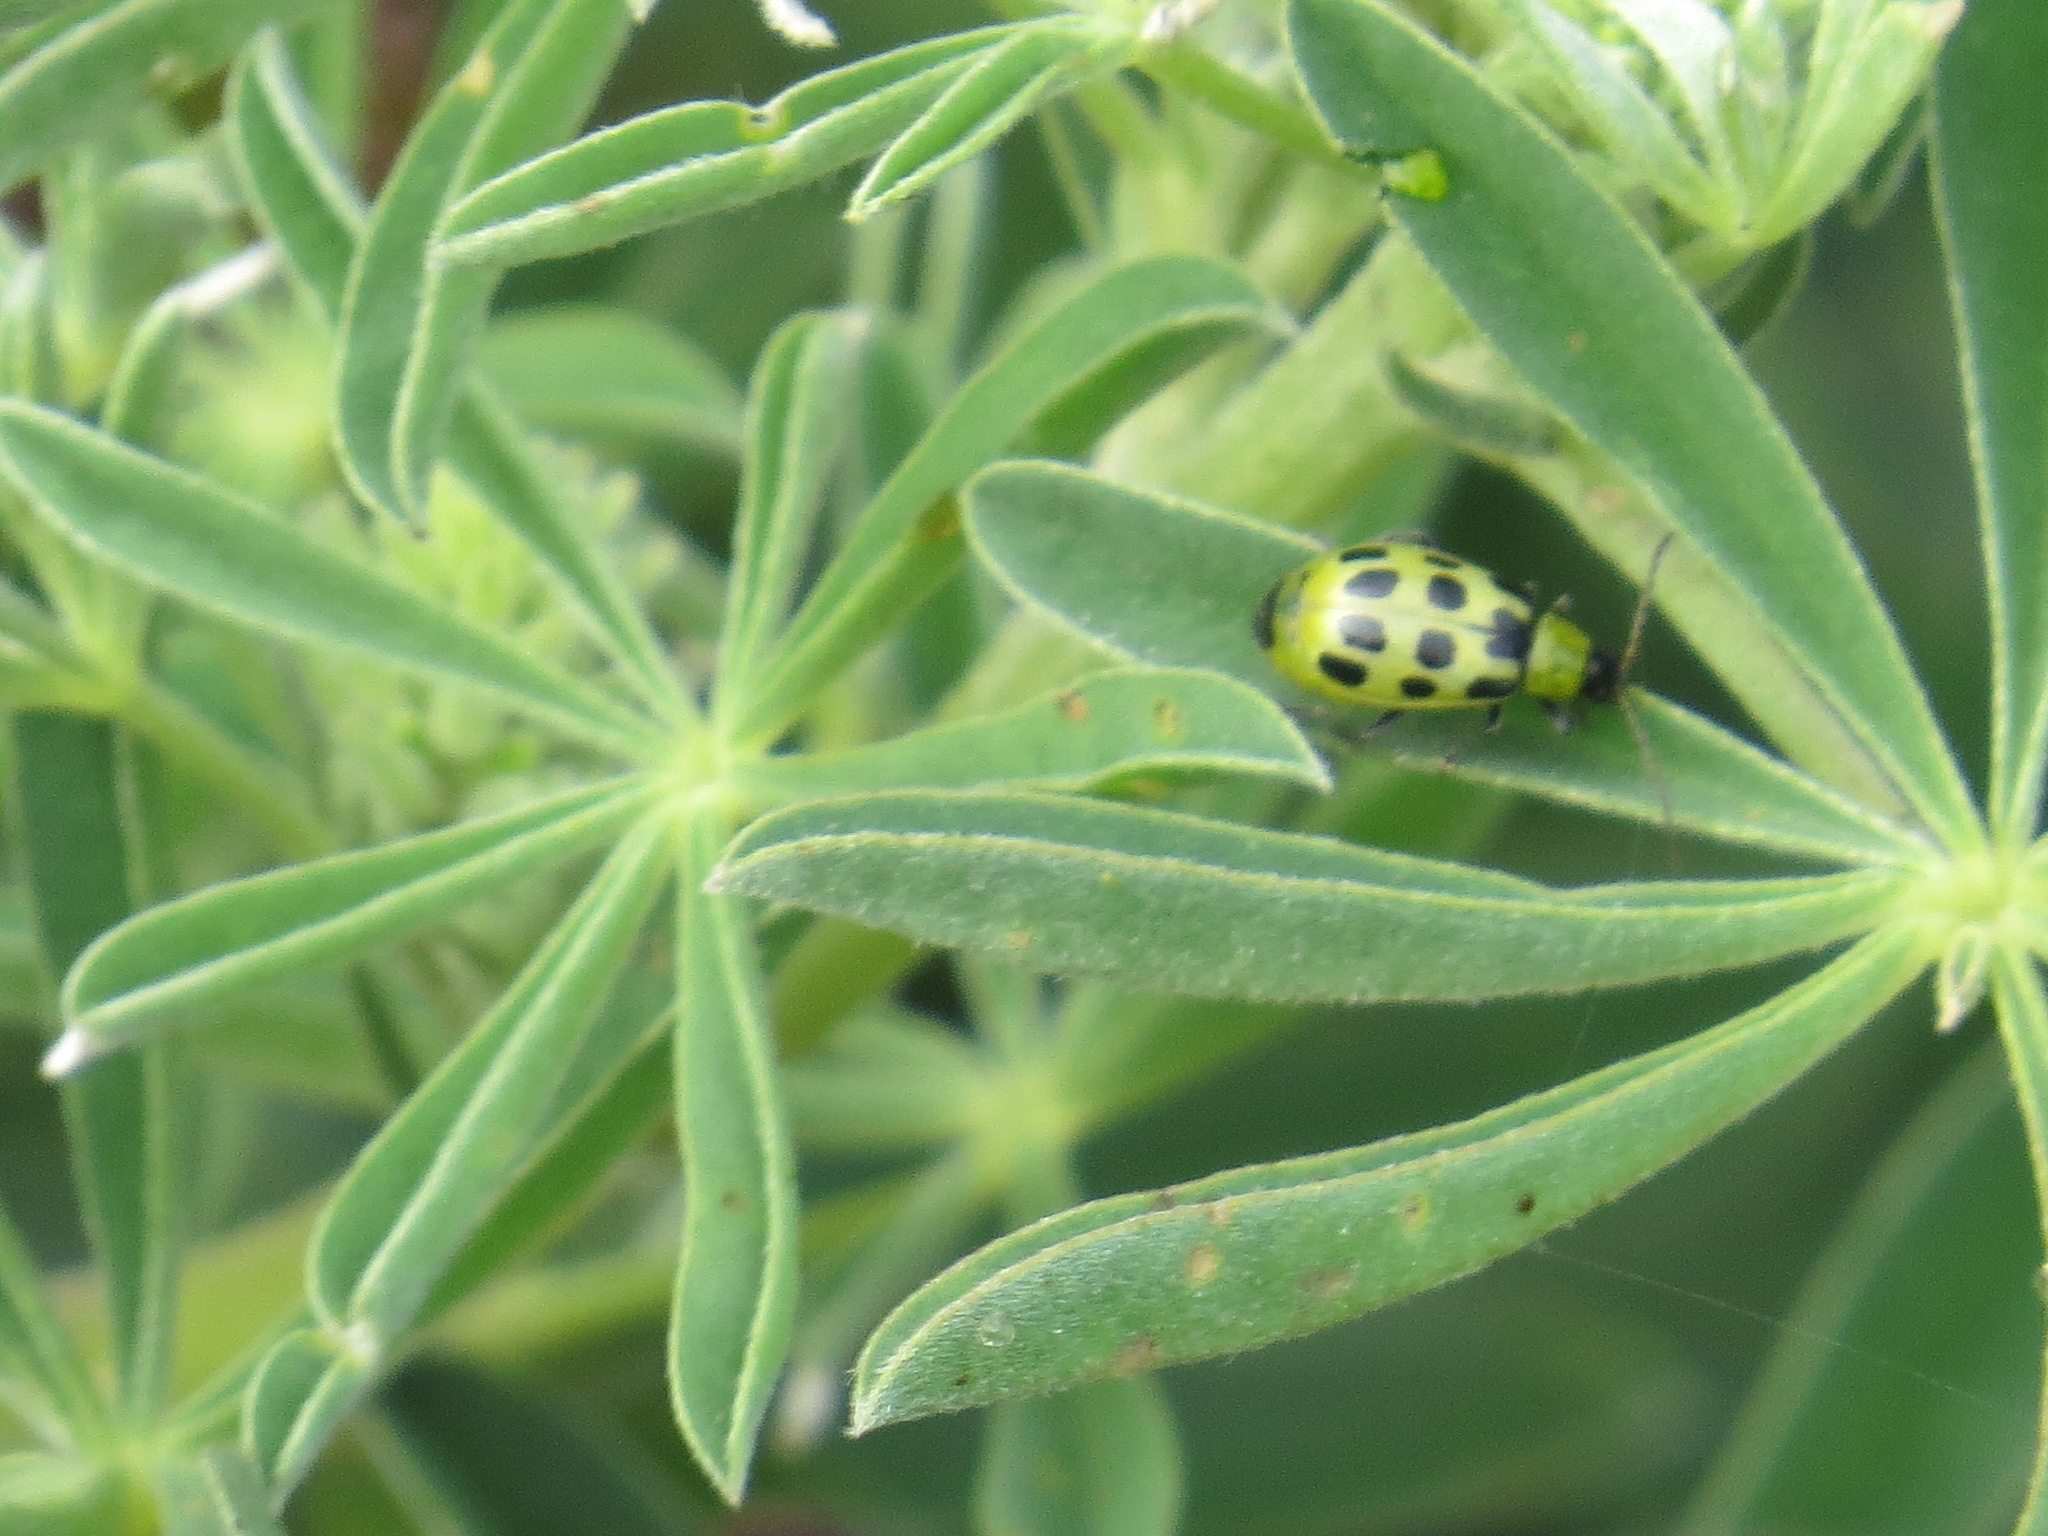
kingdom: Animalia
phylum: Arthropoda
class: Insecta
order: Coleoptera
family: Chrysomelidae
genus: Diabrotica
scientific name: Diabrotica undecimpunctata
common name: Spotted cucumber beetle
